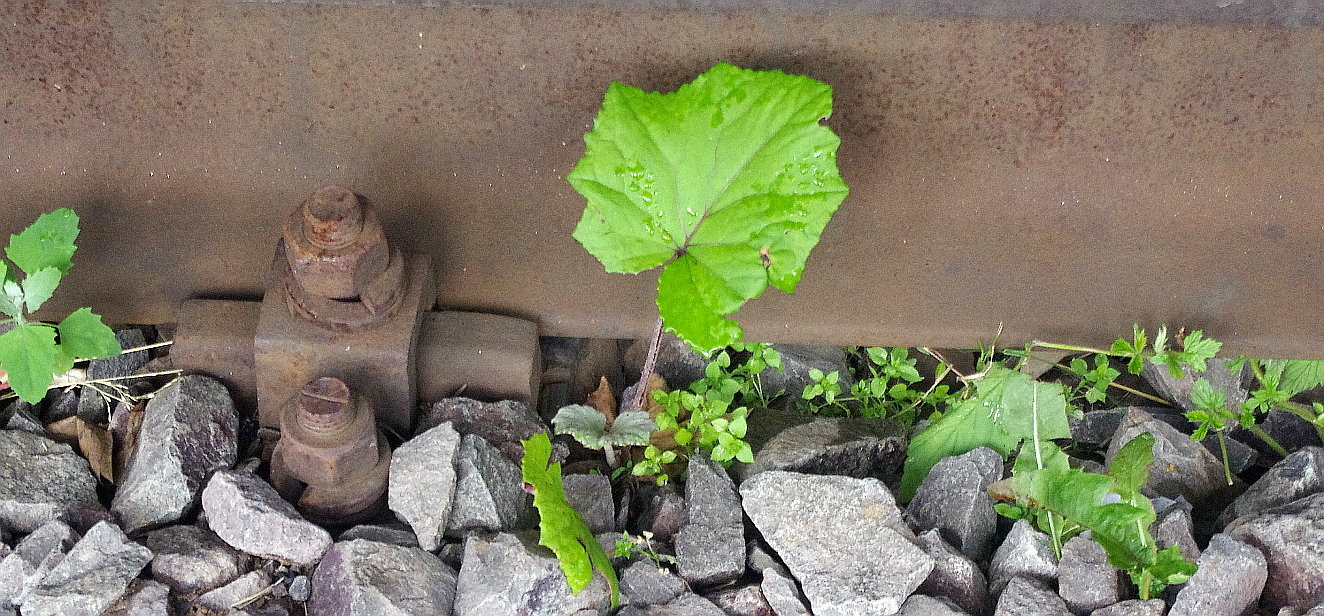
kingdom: Plantae
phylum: Tracheophyta
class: Magnoliopsida
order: Asterales
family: Asteraceae
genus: Tussilago
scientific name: Tussilago farfara
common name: Coltsfoot
